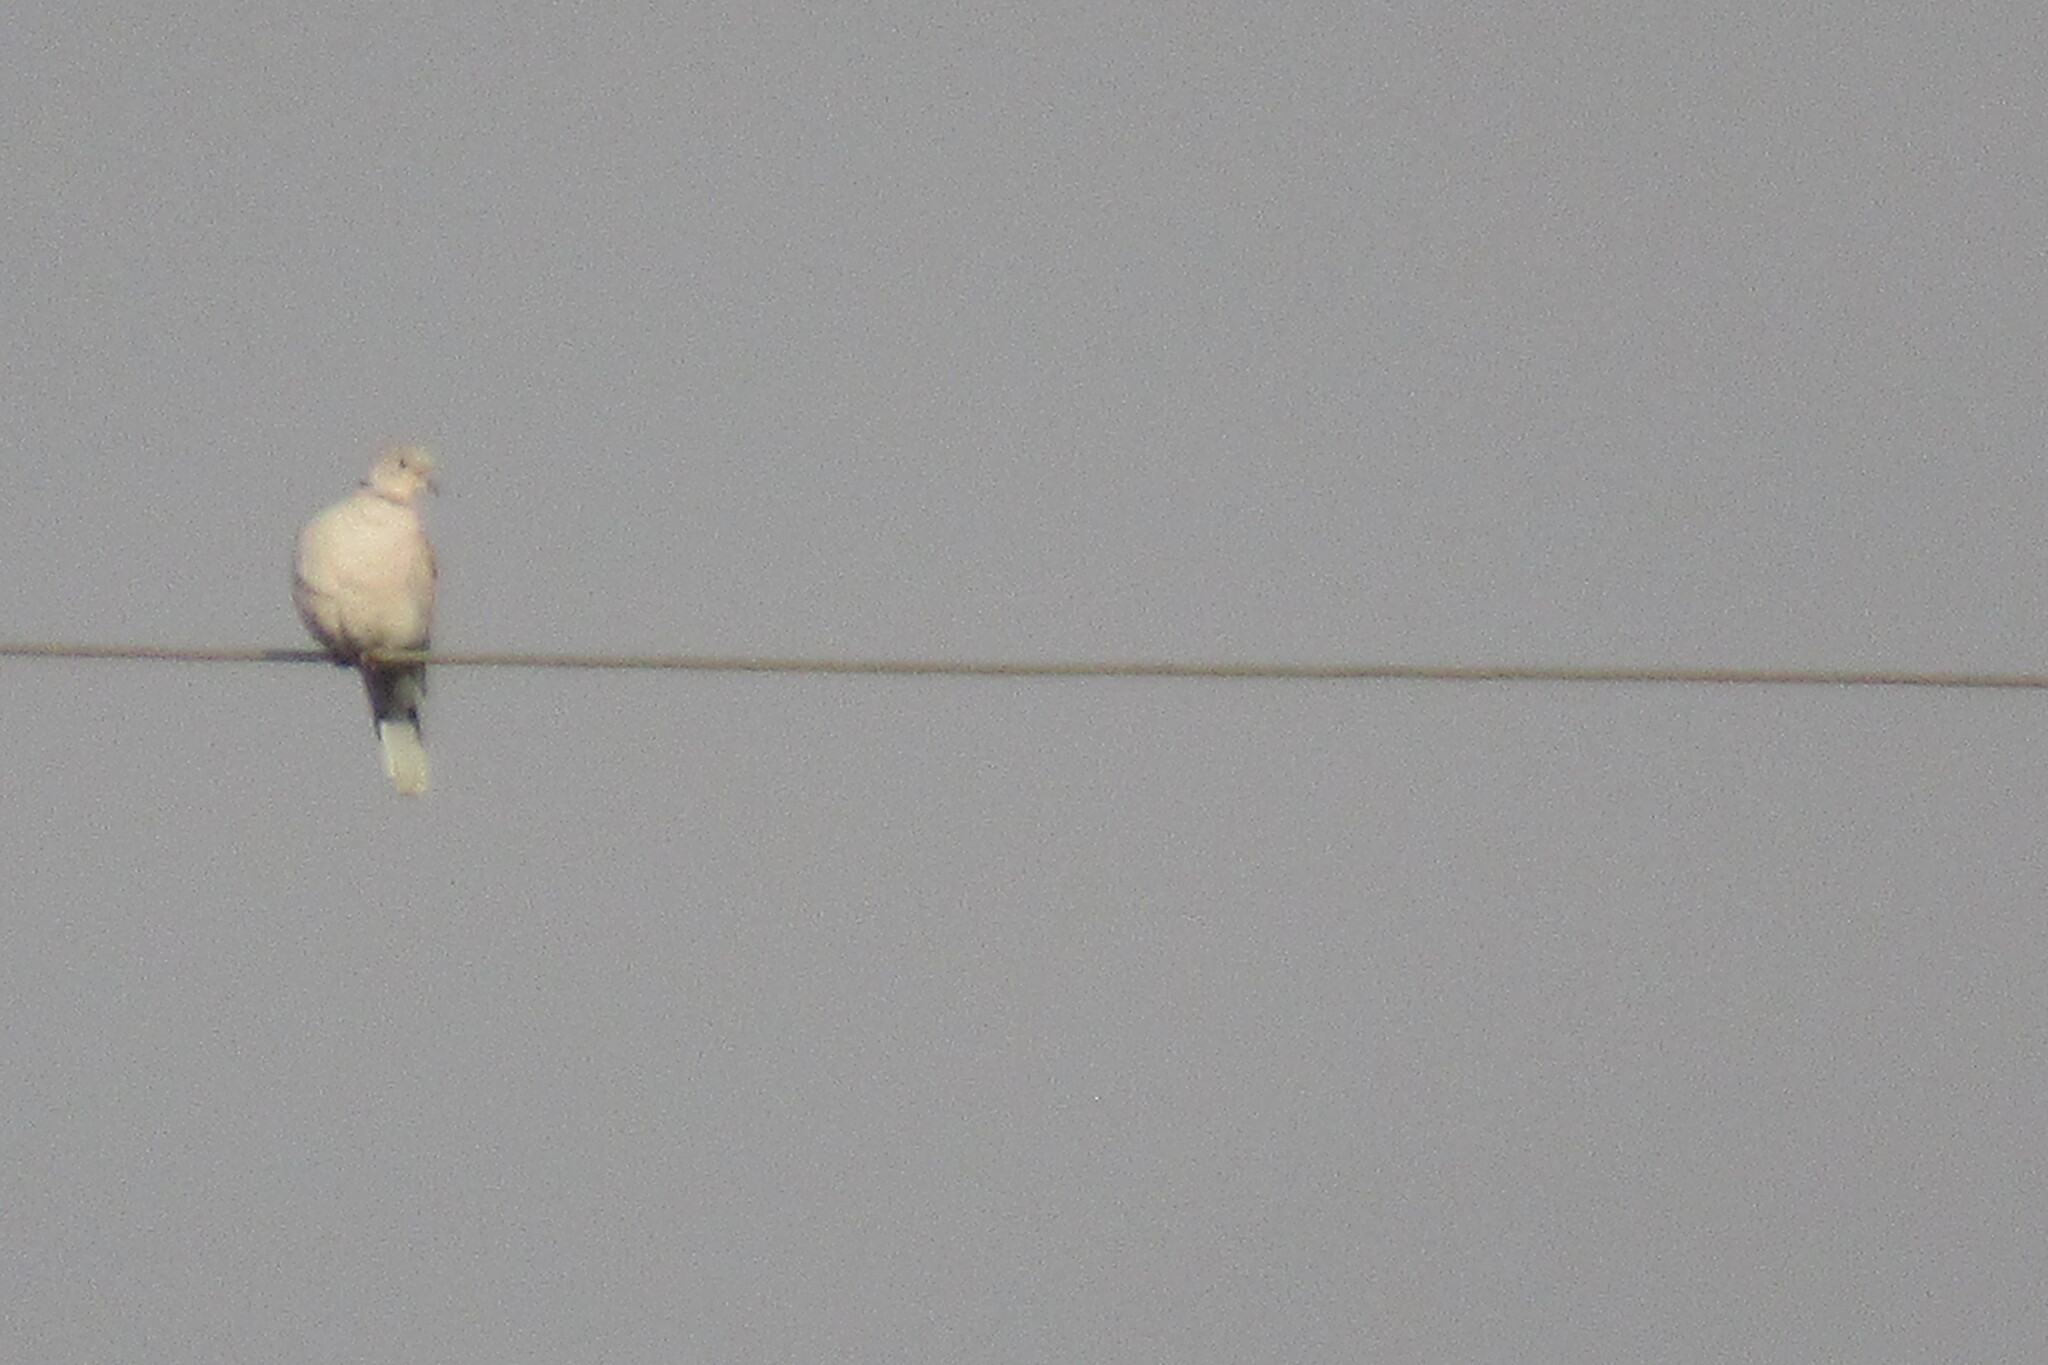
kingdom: Animalia
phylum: Chordata
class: Aves
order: Columbiformes
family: Columbidae
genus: Streptopelia
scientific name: Streptopelia decaocto
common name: Eurasian collared dove
